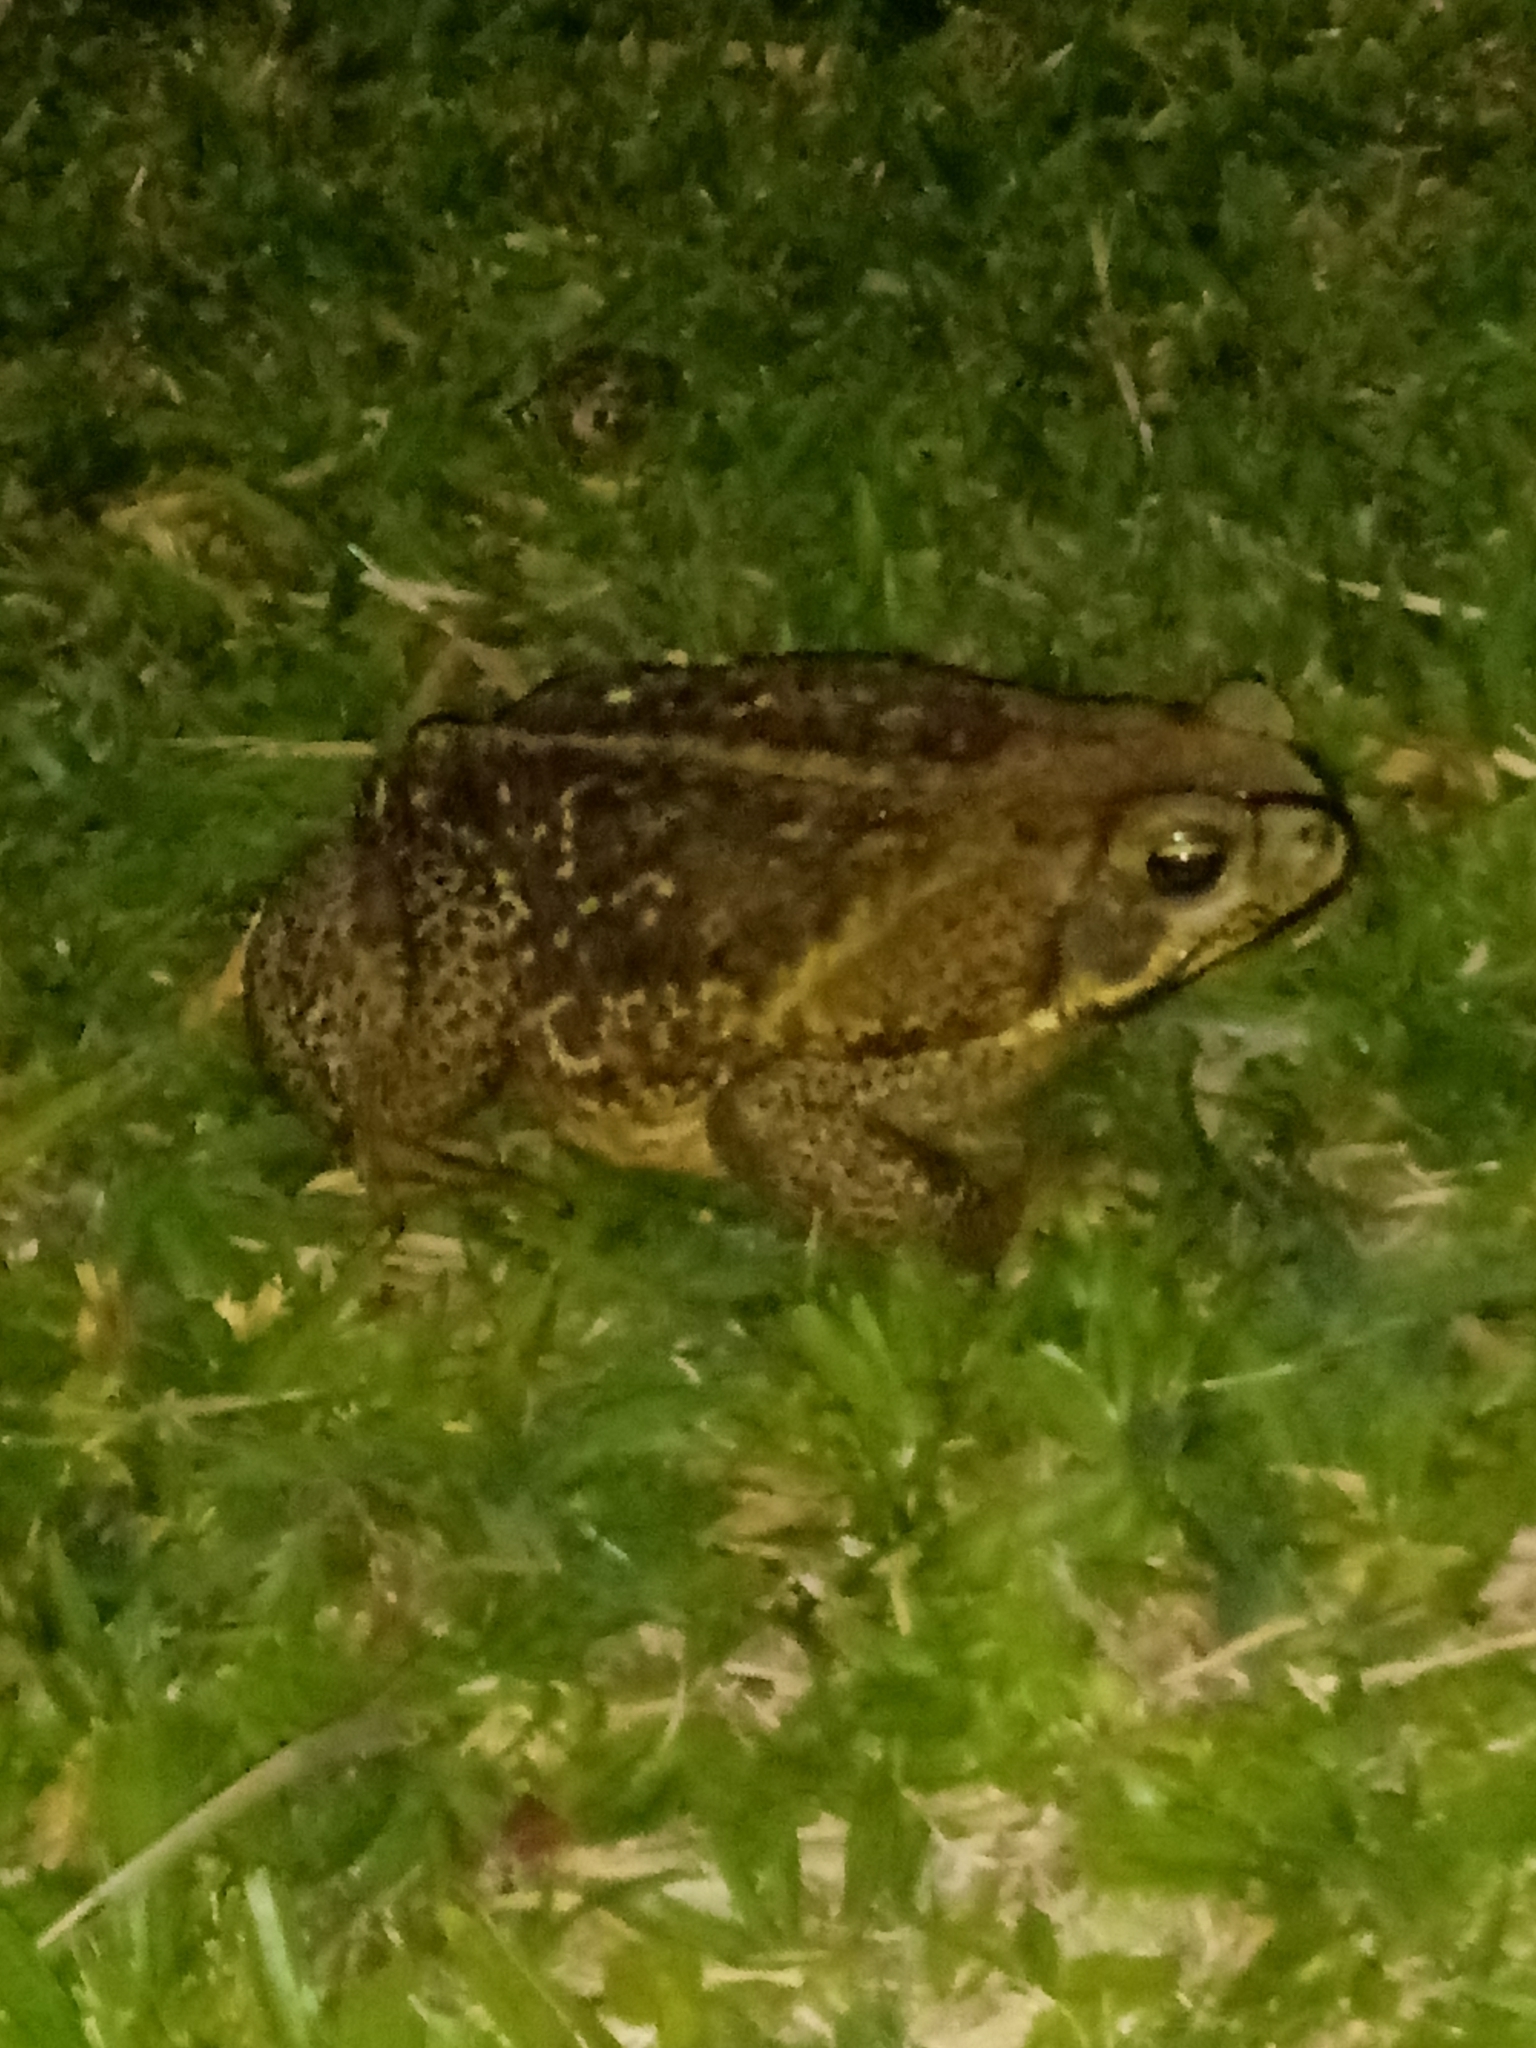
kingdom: Animalia
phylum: Chordata
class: Amphibia
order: Anura
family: Bufonidae
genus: Rhinella
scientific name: Rhinella diptycha
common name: Cope's toad
